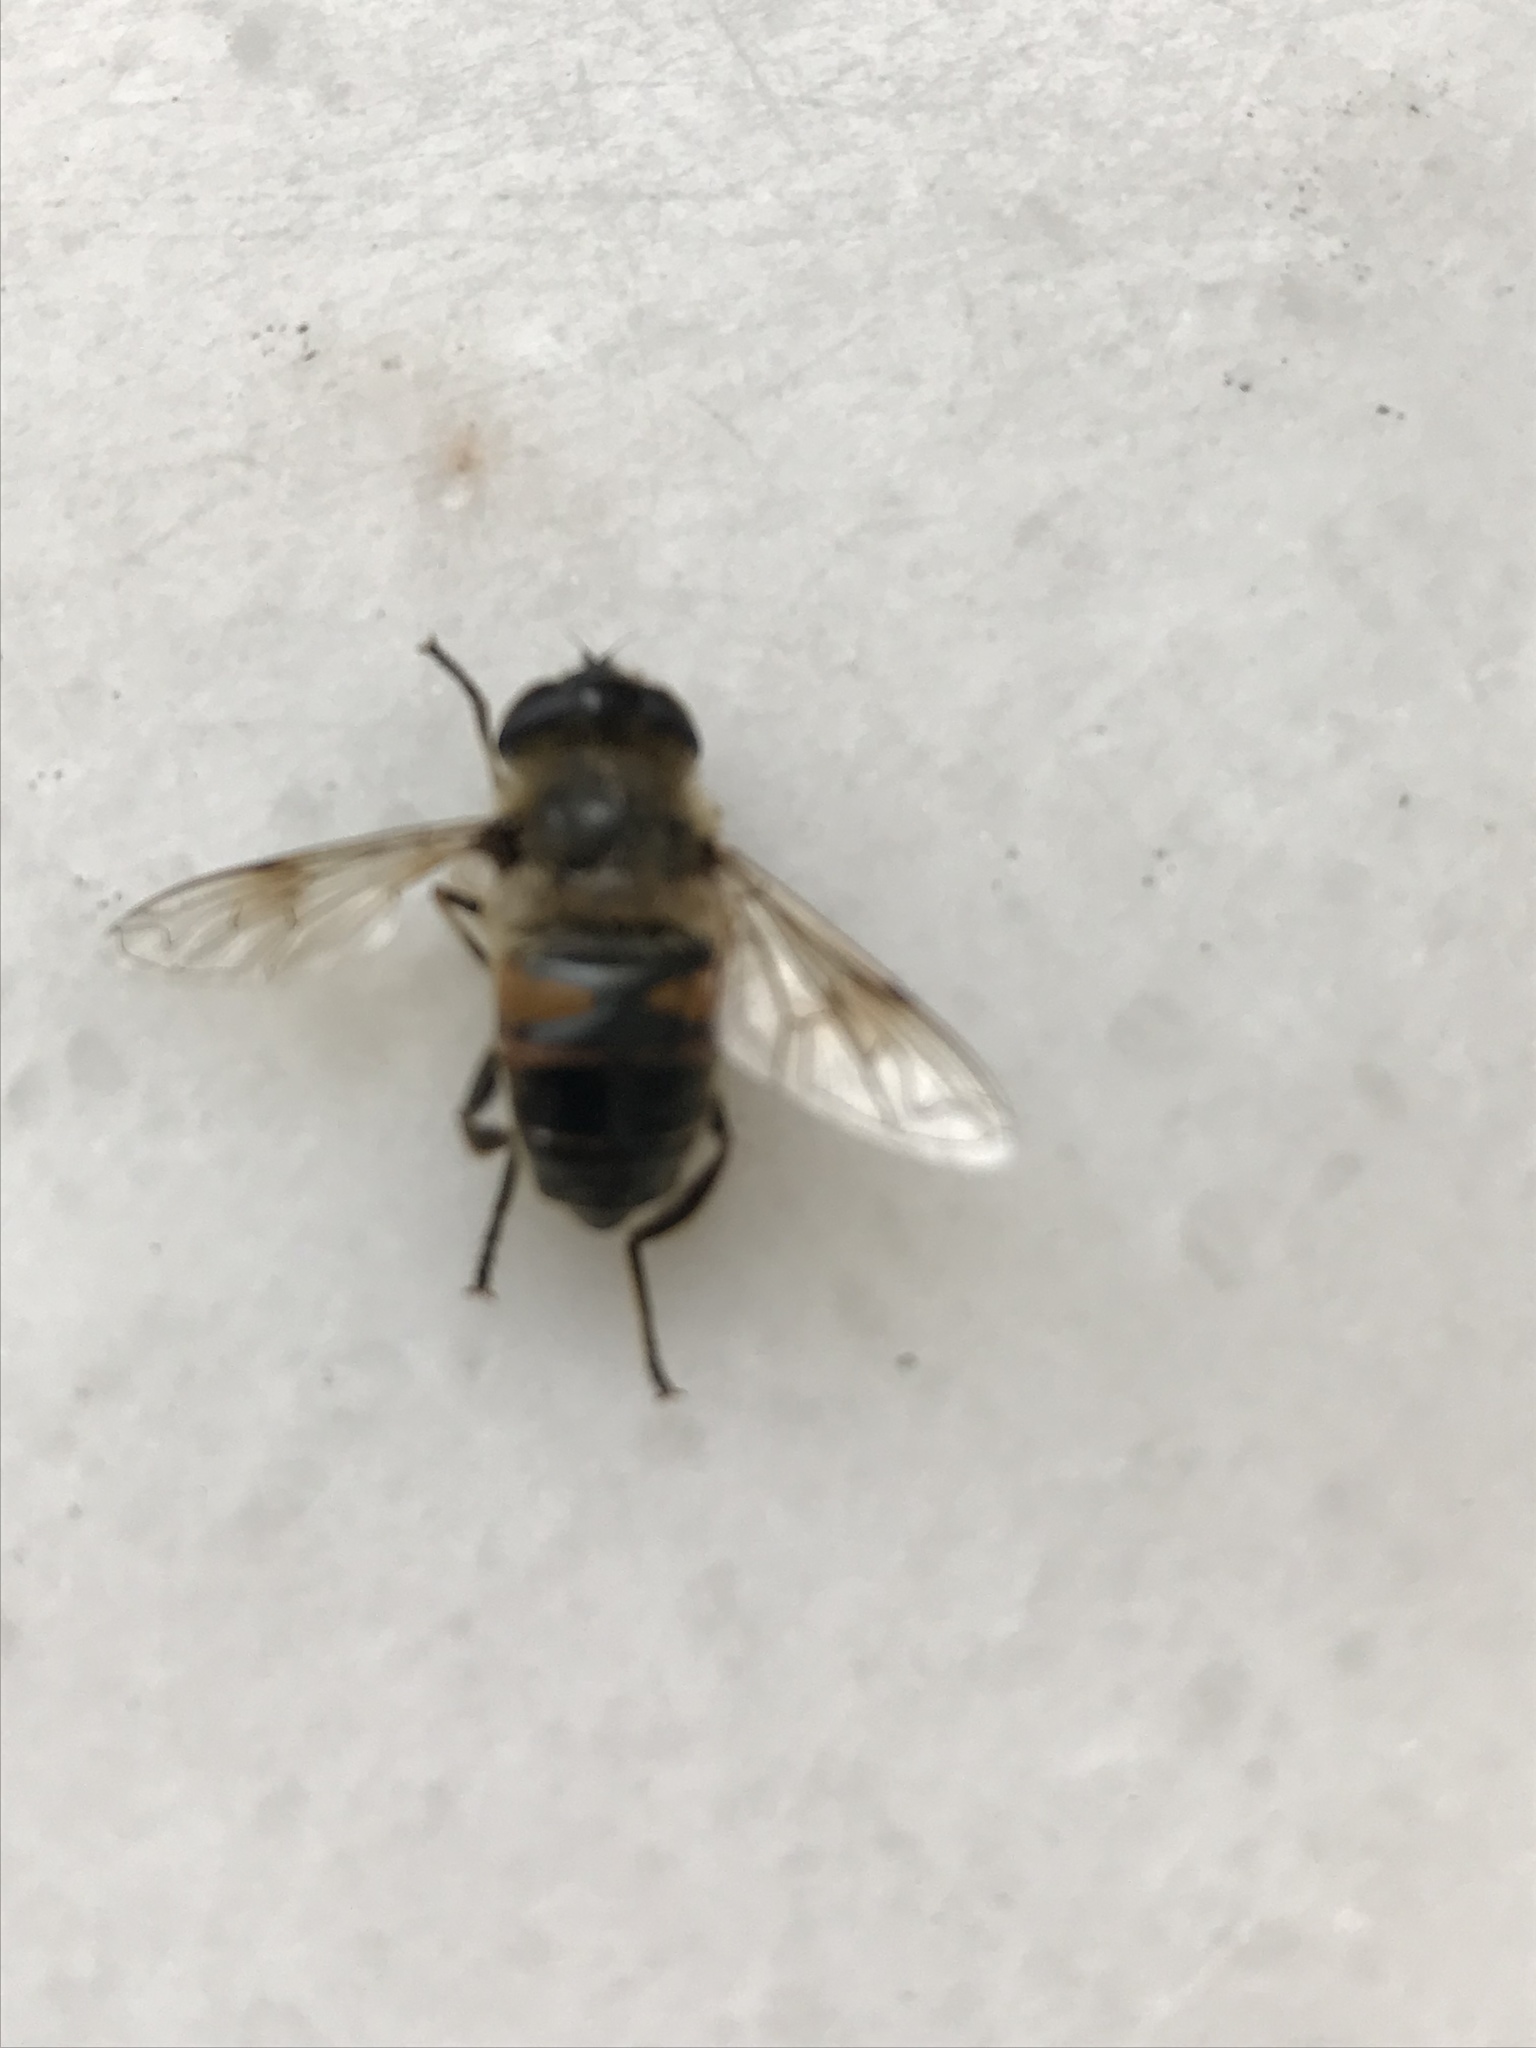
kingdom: Animalia
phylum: Arthropoda
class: Insecta
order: Diptera
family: Syrphidae
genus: Eristalis
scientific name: Eristalis tenax
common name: Drone fly
